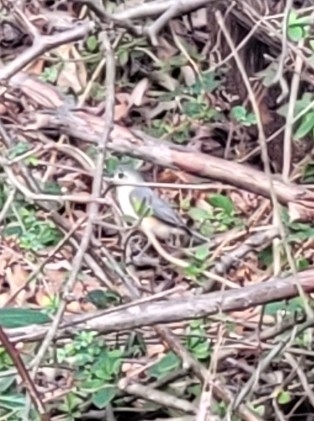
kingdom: Animalia
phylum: Chordata
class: Aves
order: Passeriformes
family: Paridae
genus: Baeolophus
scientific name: Baeolophus bicolor
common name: Tufted titmouse
